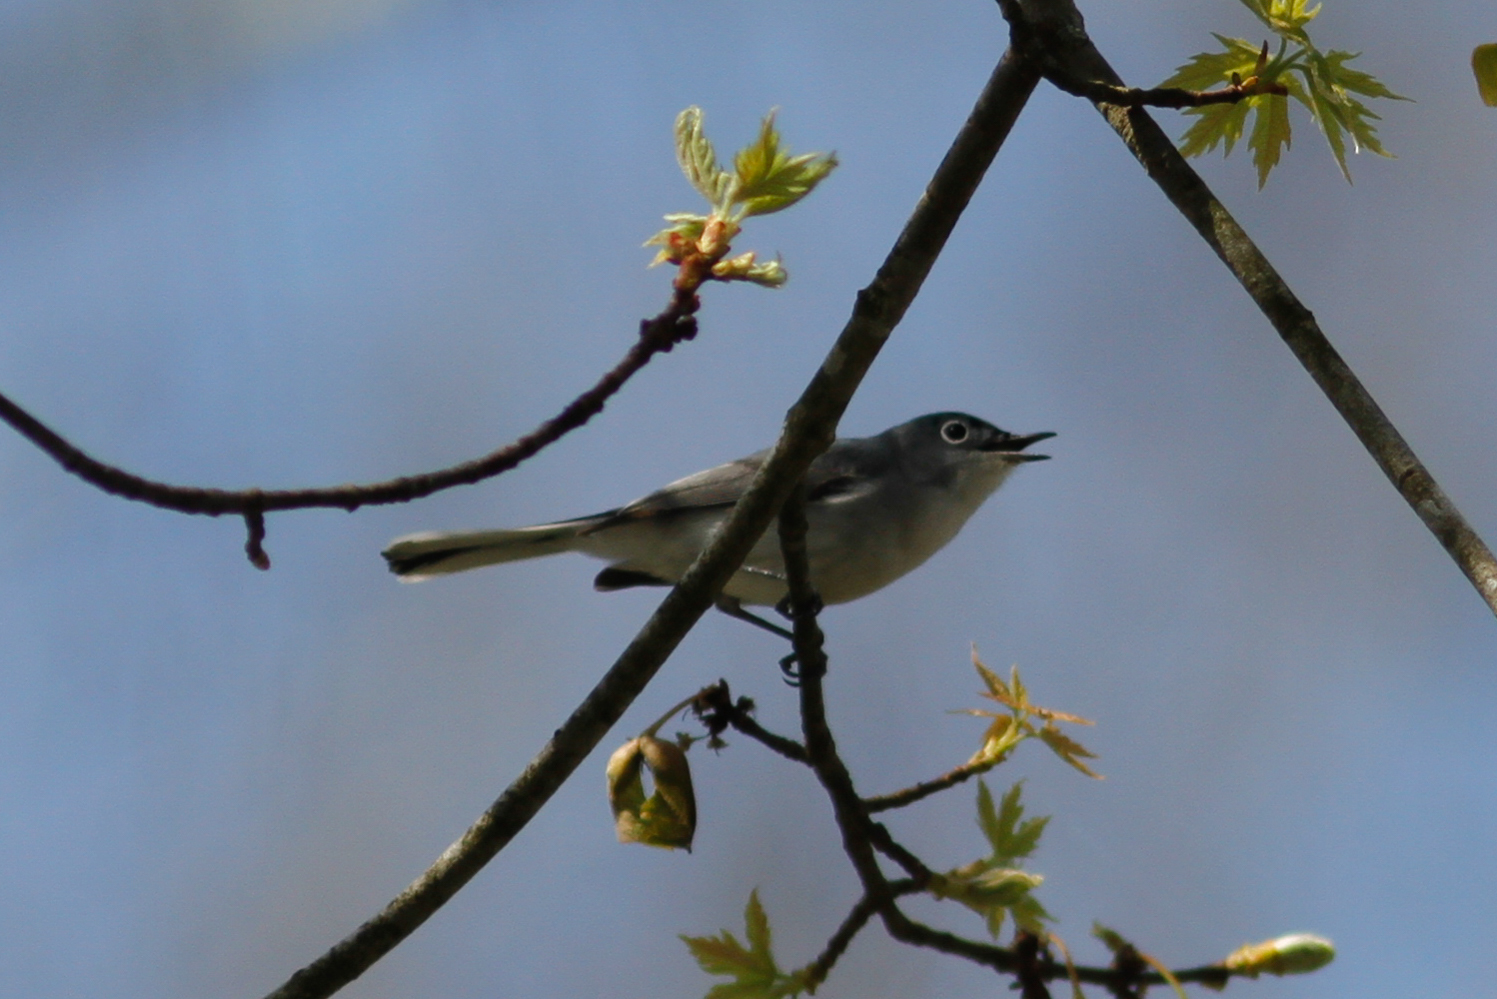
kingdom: Animalia
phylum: Chordata
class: Aves
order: Passeriformes
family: Polioptilidae
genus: Polioptila
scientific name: Polioptila caerulea
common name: Blue-gray gnatcatcher
